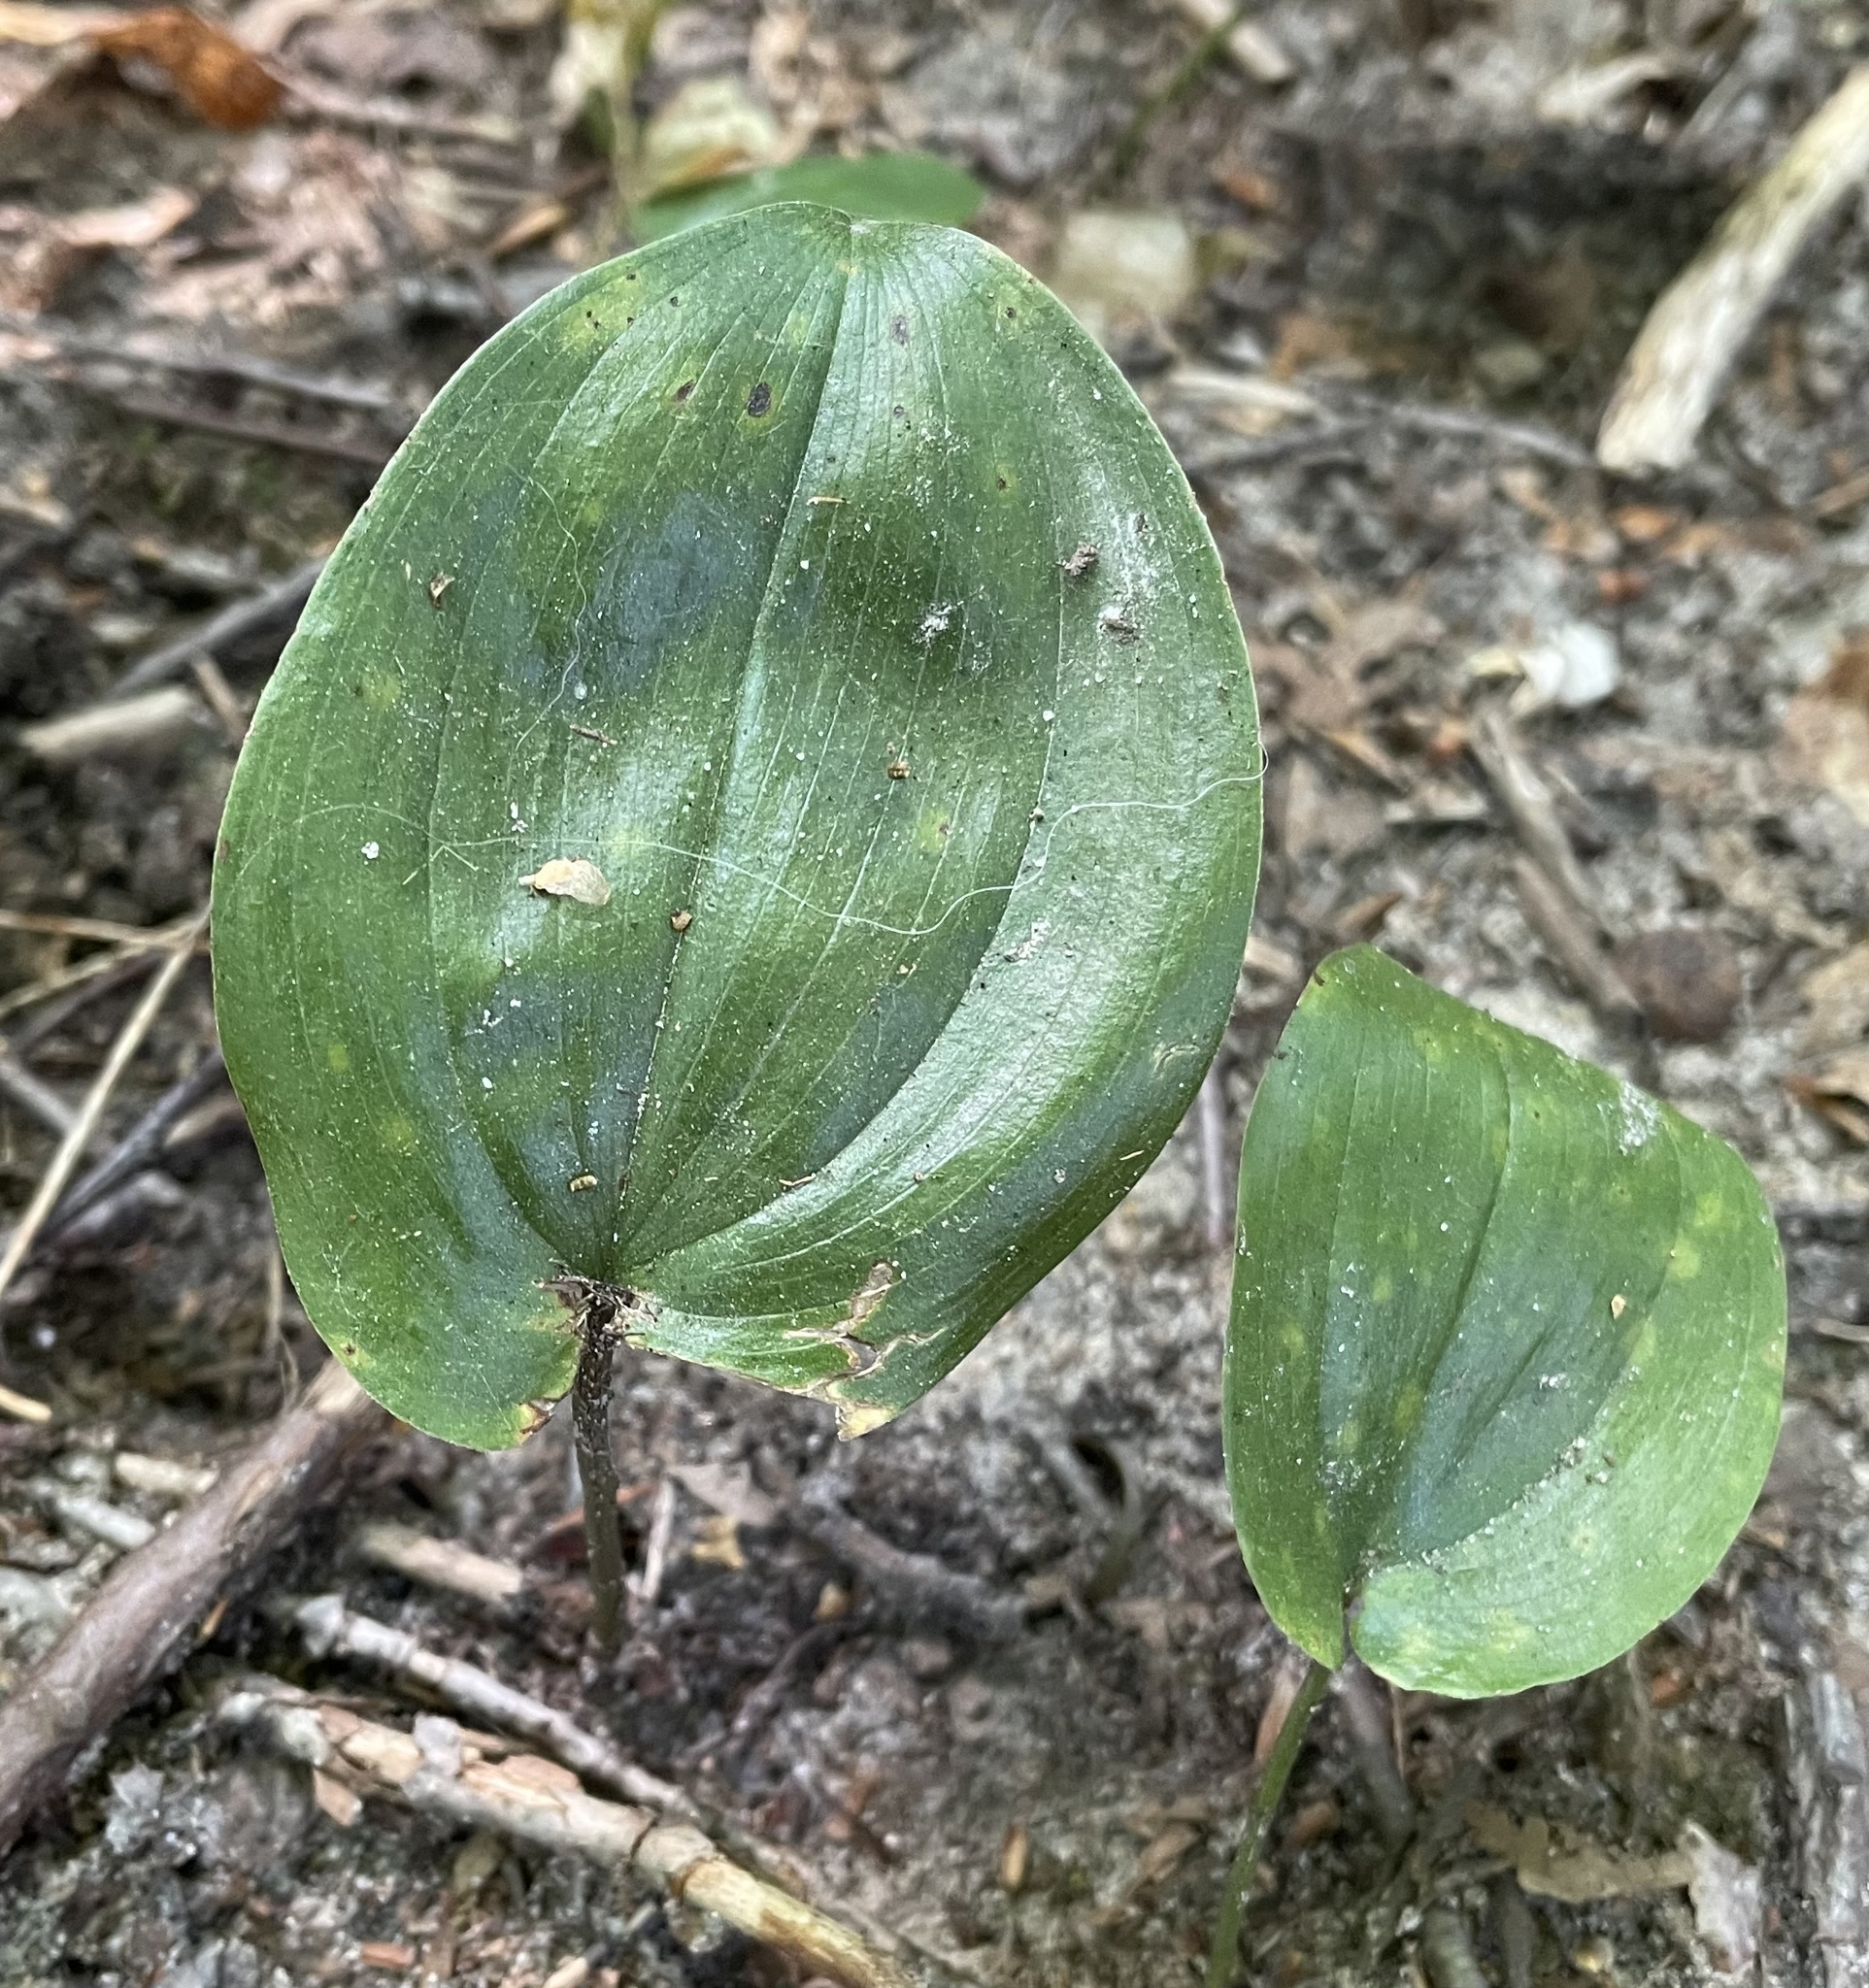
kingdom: Plantae
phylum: Tracheophyta
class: Liliopsida
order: Asparagales
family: Asparagaceae
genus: Maianthemum
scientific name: Maianthemum canadense
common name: False lily-of-the-valley
